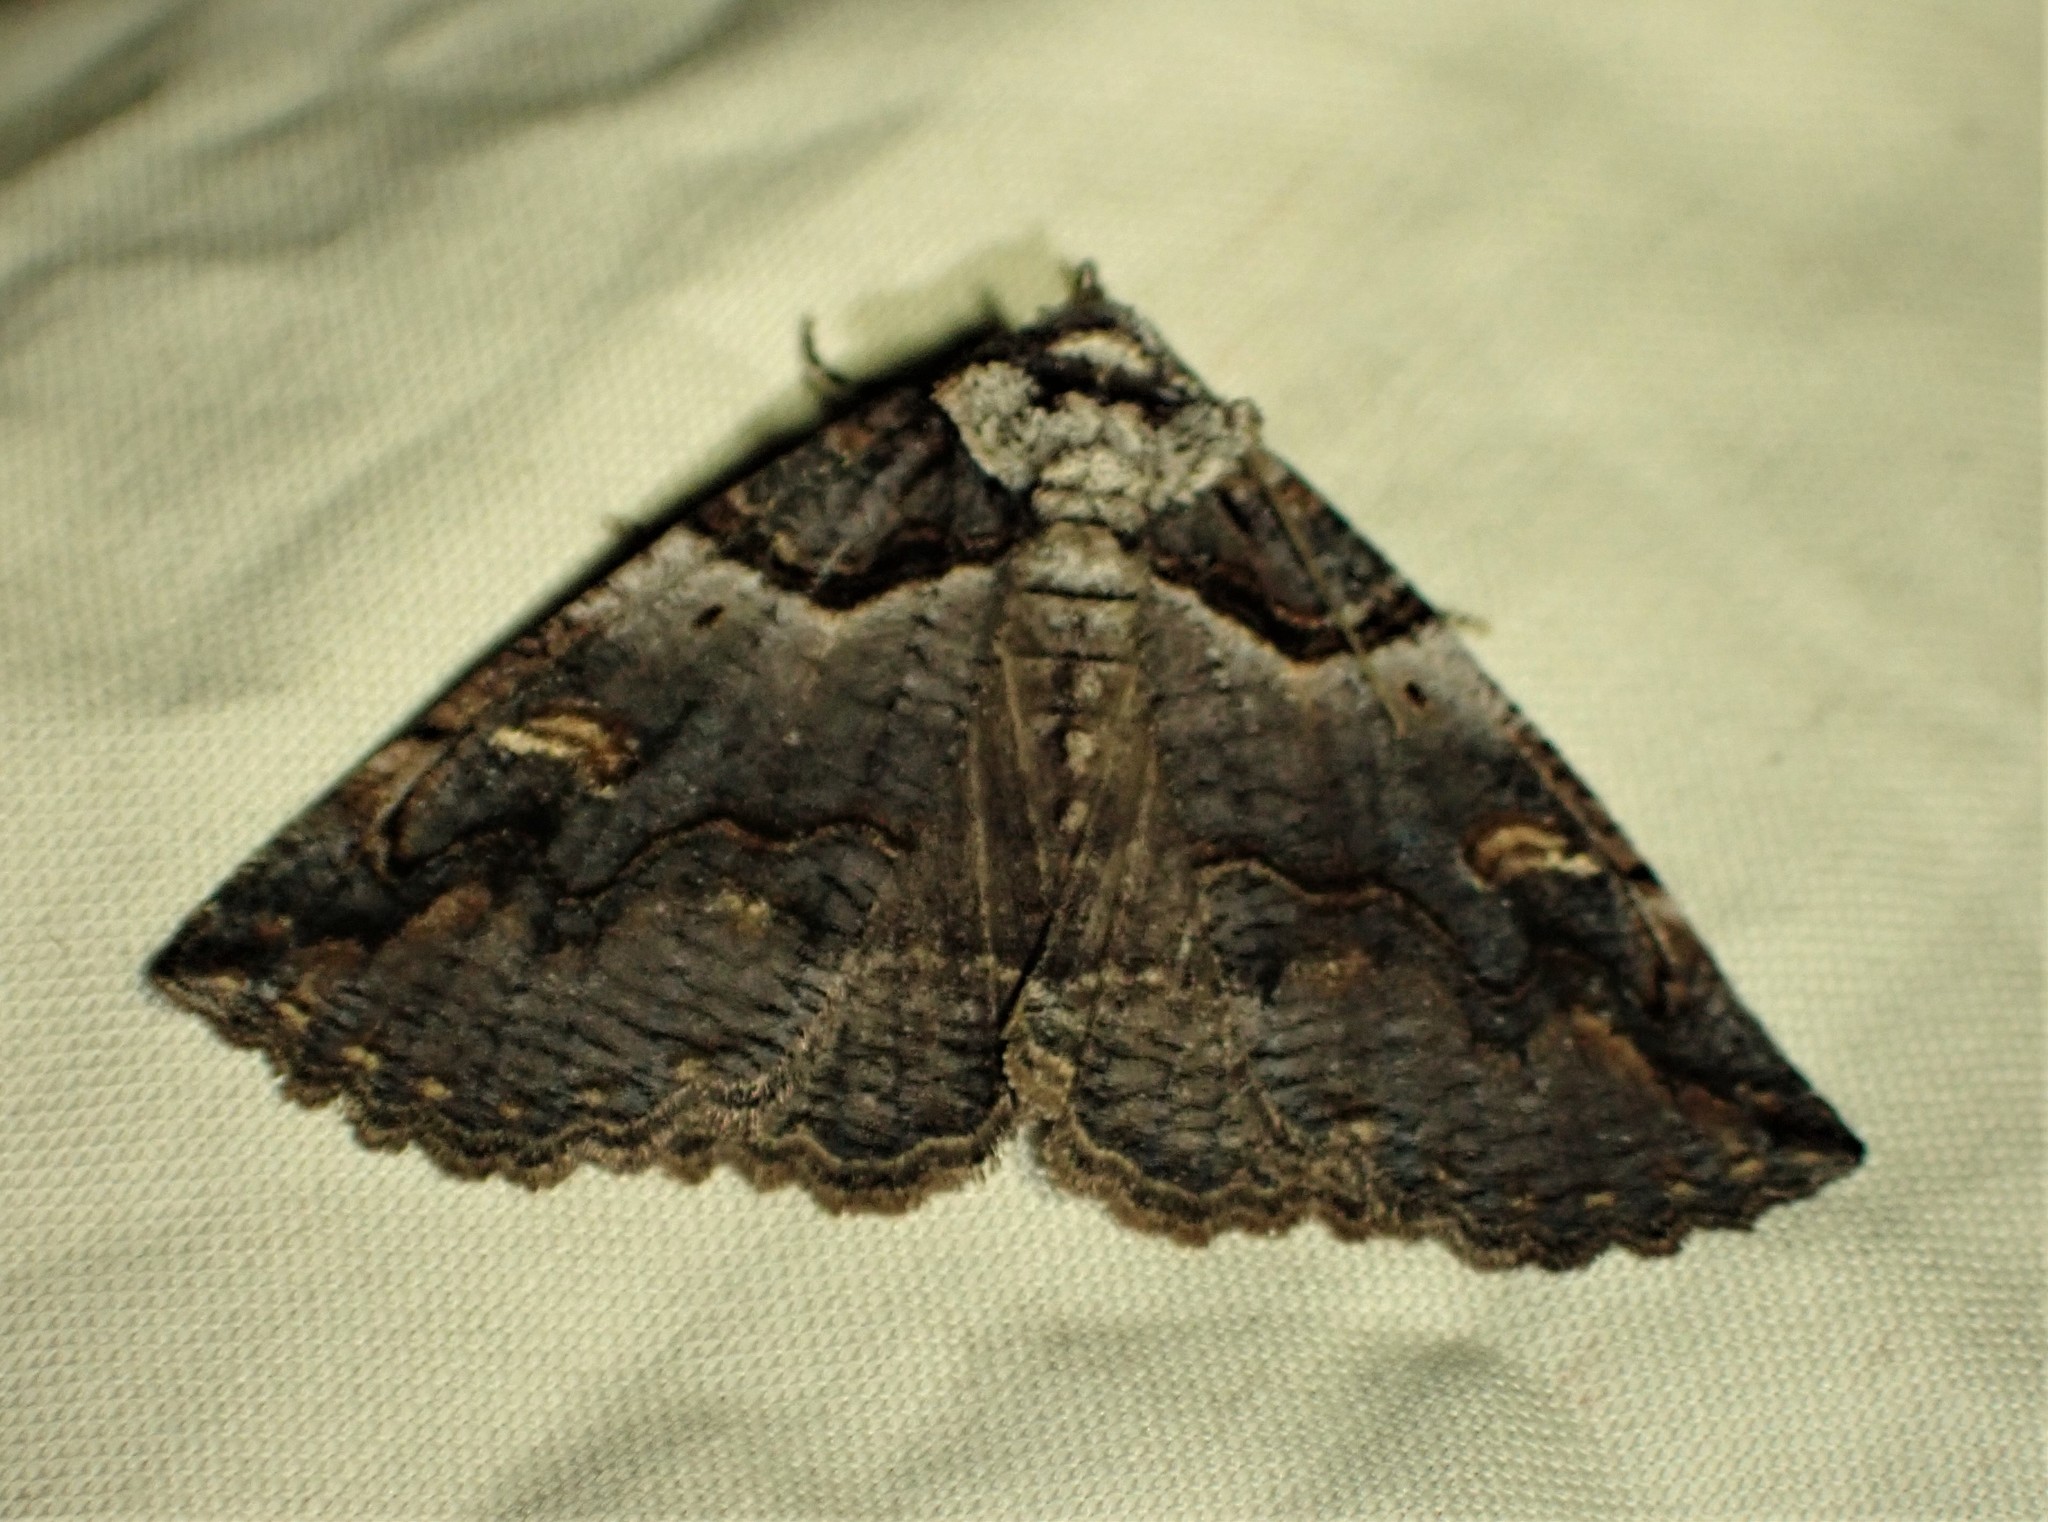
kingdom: Animalia
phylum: Arthropoda
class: Insecta
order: Lepidoptera
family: Erebidae
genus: Zale
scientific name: Zale intenta
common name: Intent zale moth
